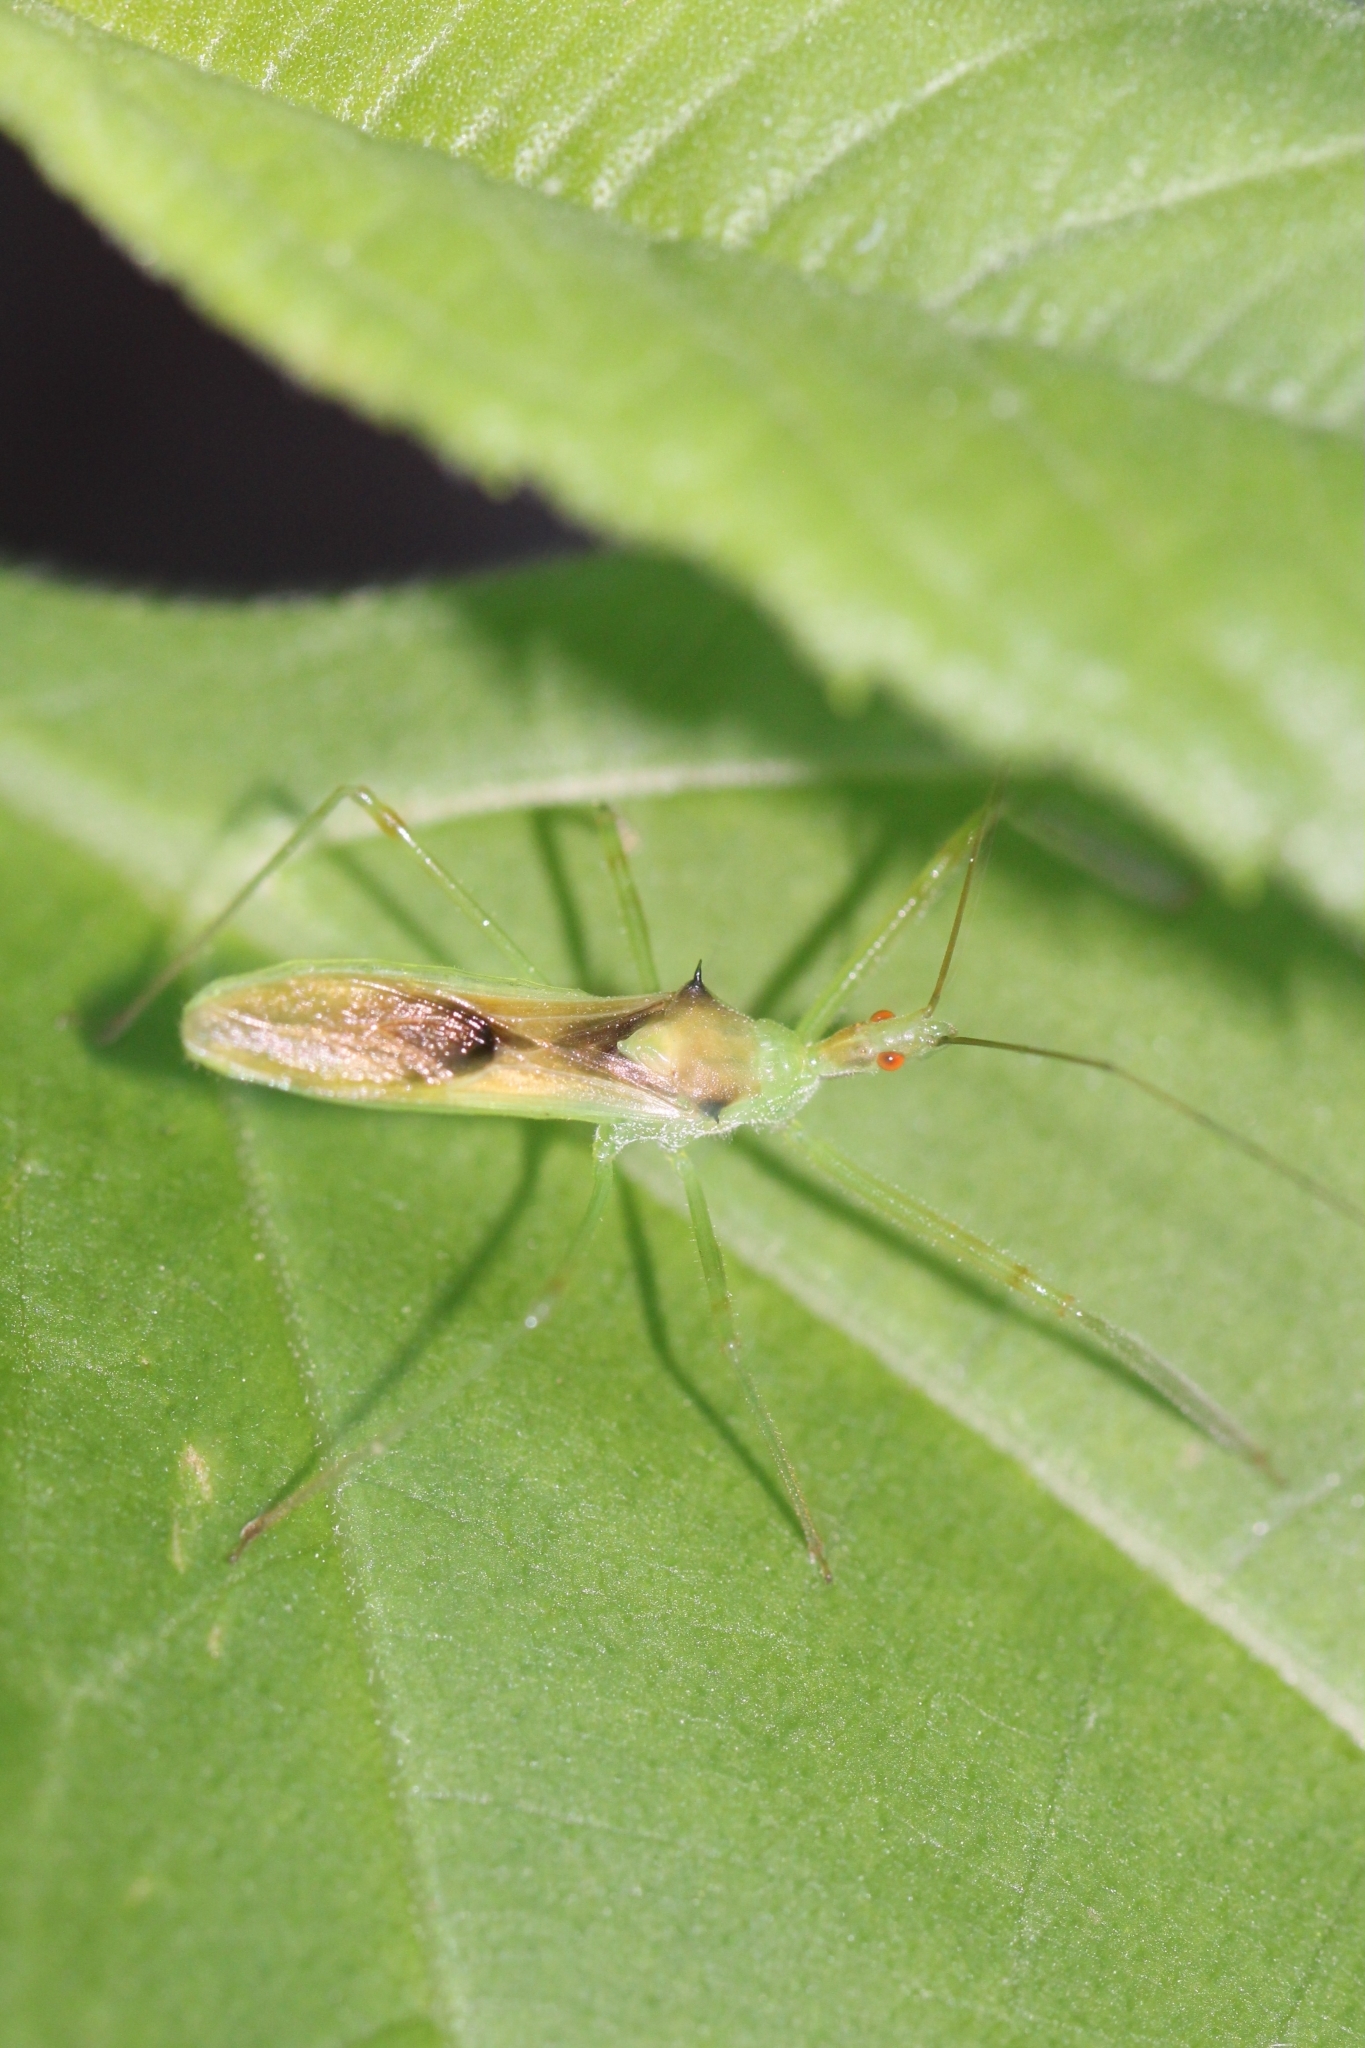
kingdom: Animalia
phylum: Arthropoda
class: Insecta
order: Hemiptera
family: Reduviidae
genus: Zelus
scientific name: Zelus luridus
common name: Pale green assassin bug
